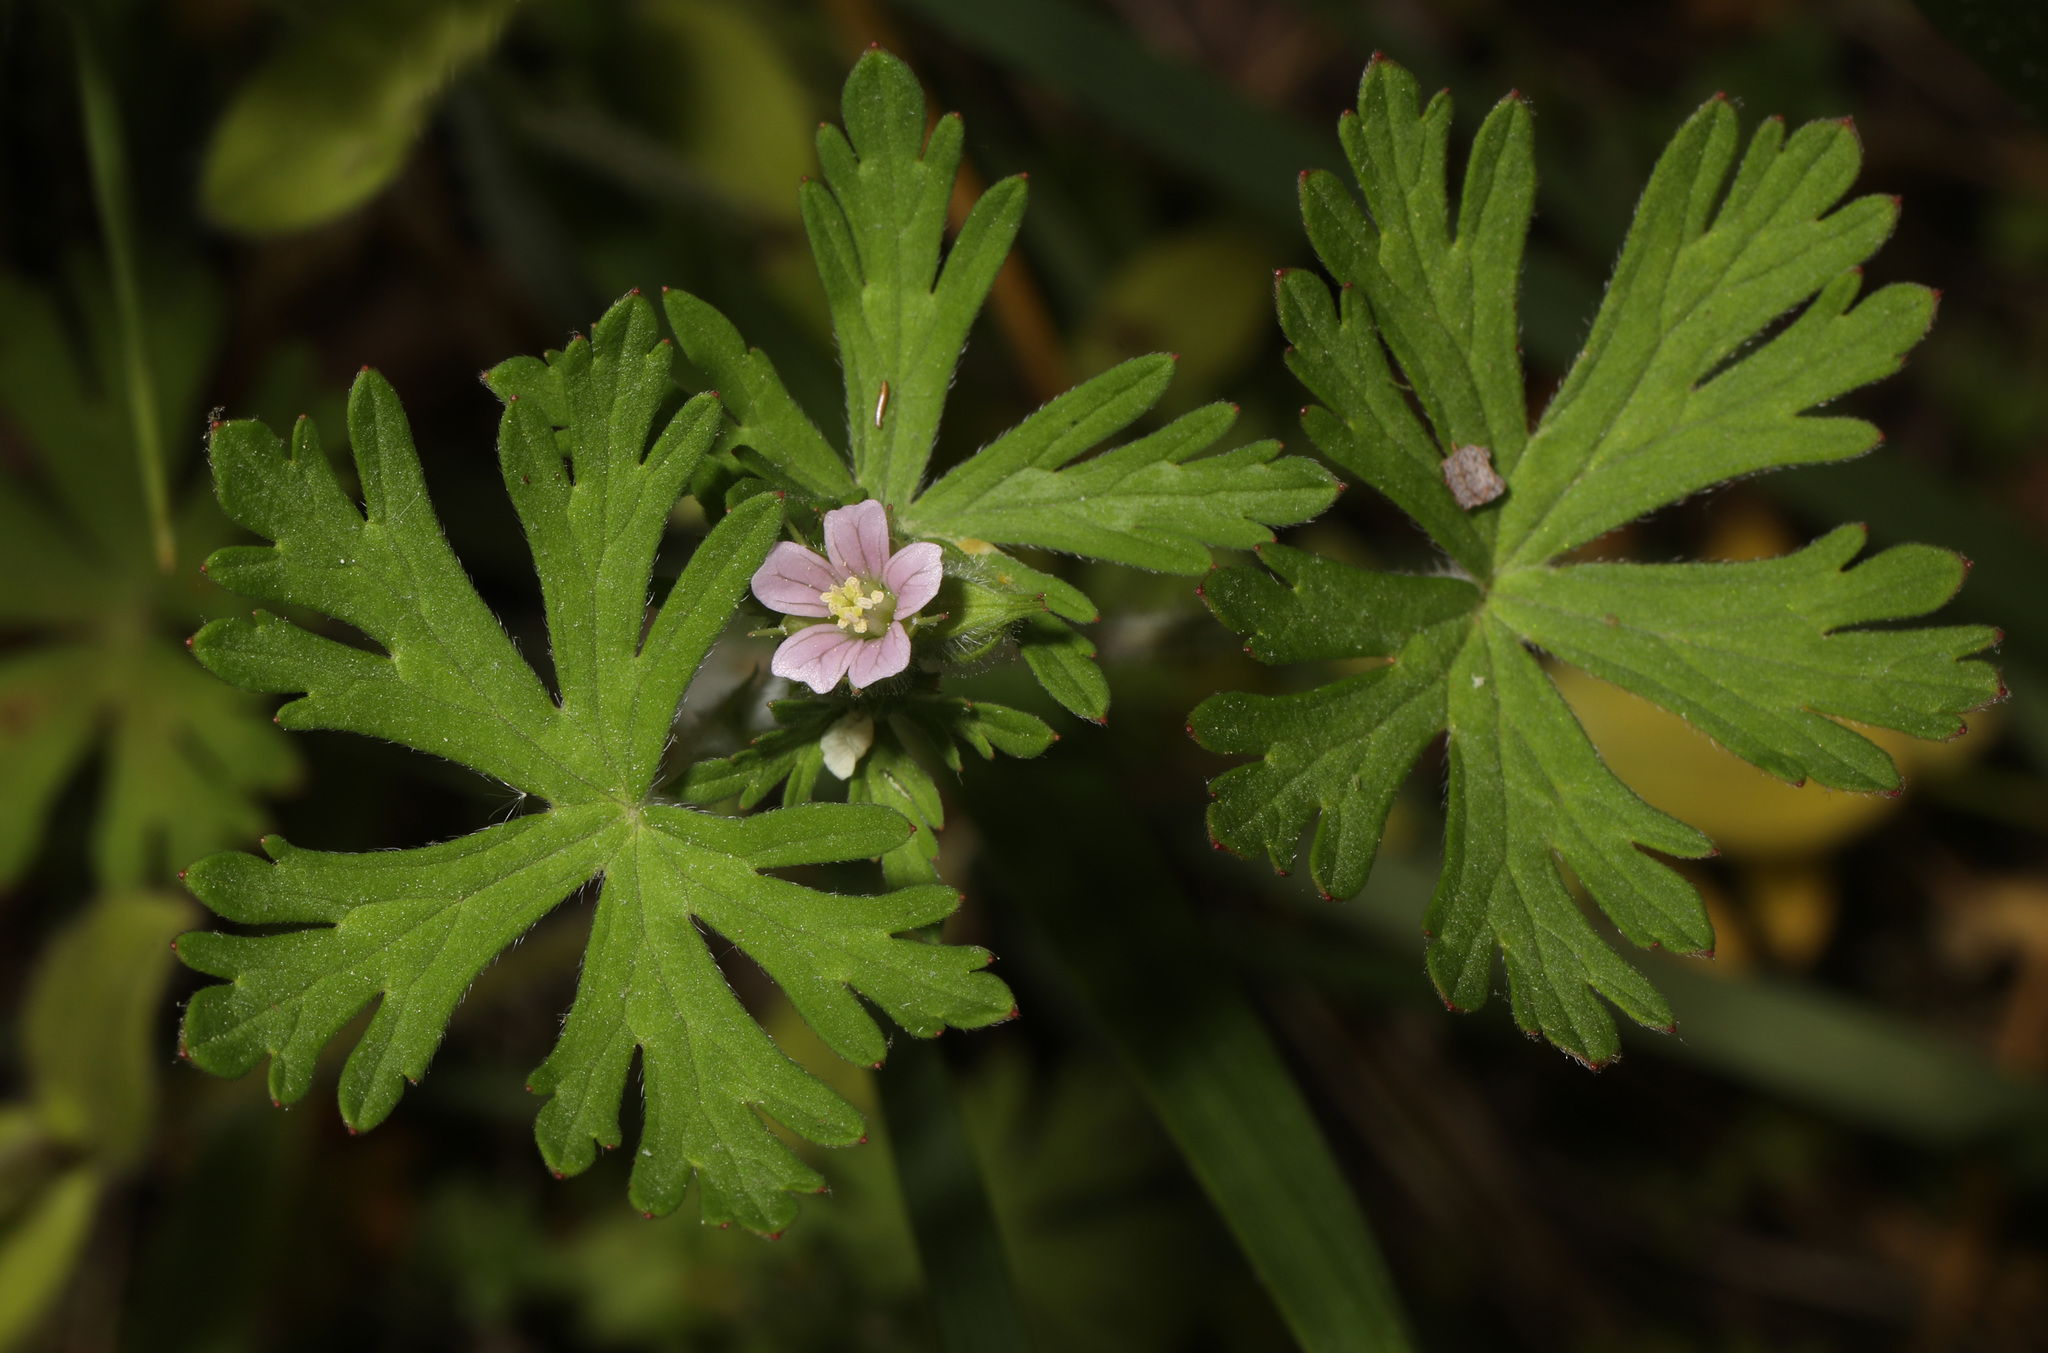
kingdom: Plantae
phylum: Tracheophyta
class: Magnoliopsida
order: Geraniales
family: Geraniaceae
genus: Geranium
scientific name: Geranium carolinianum
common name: Carolina crane's-bill
